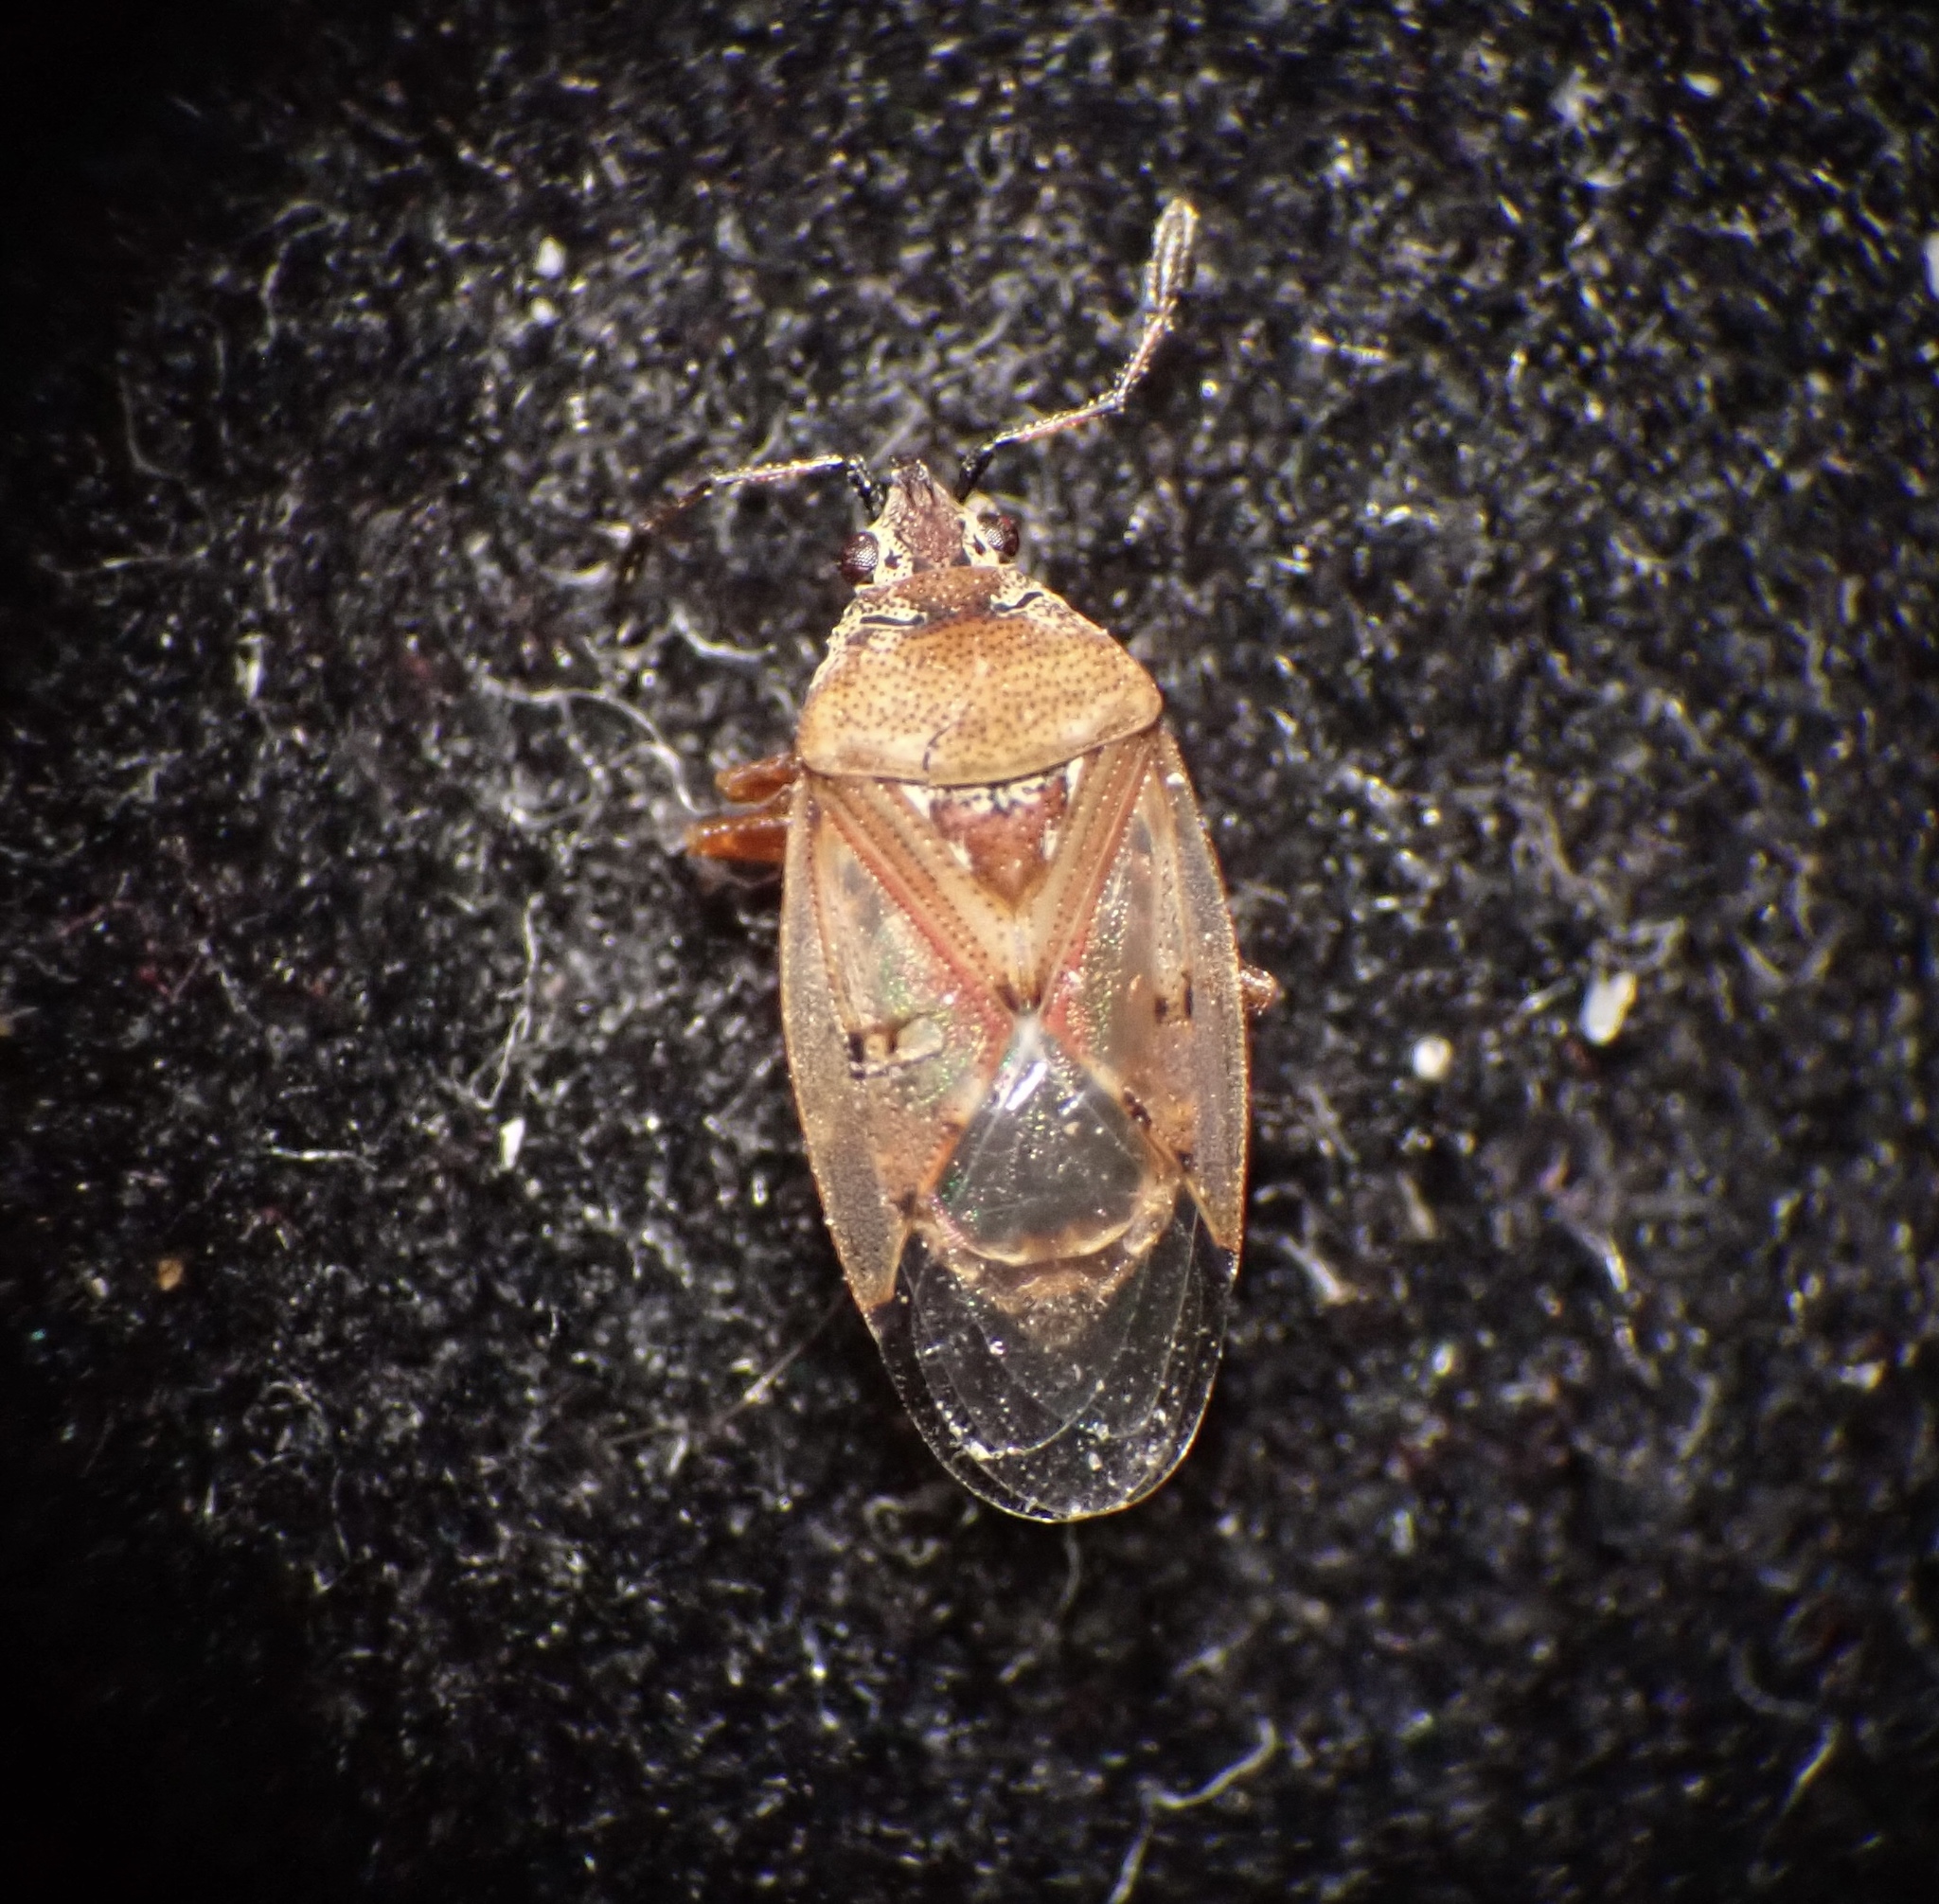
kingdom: Animalia
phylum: Arthropoda
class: Insecta
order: Hemiptera
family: Lygaeidae
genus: Kleidocerys
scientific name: Kleidocerys resedae
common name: Birch catkin bug
